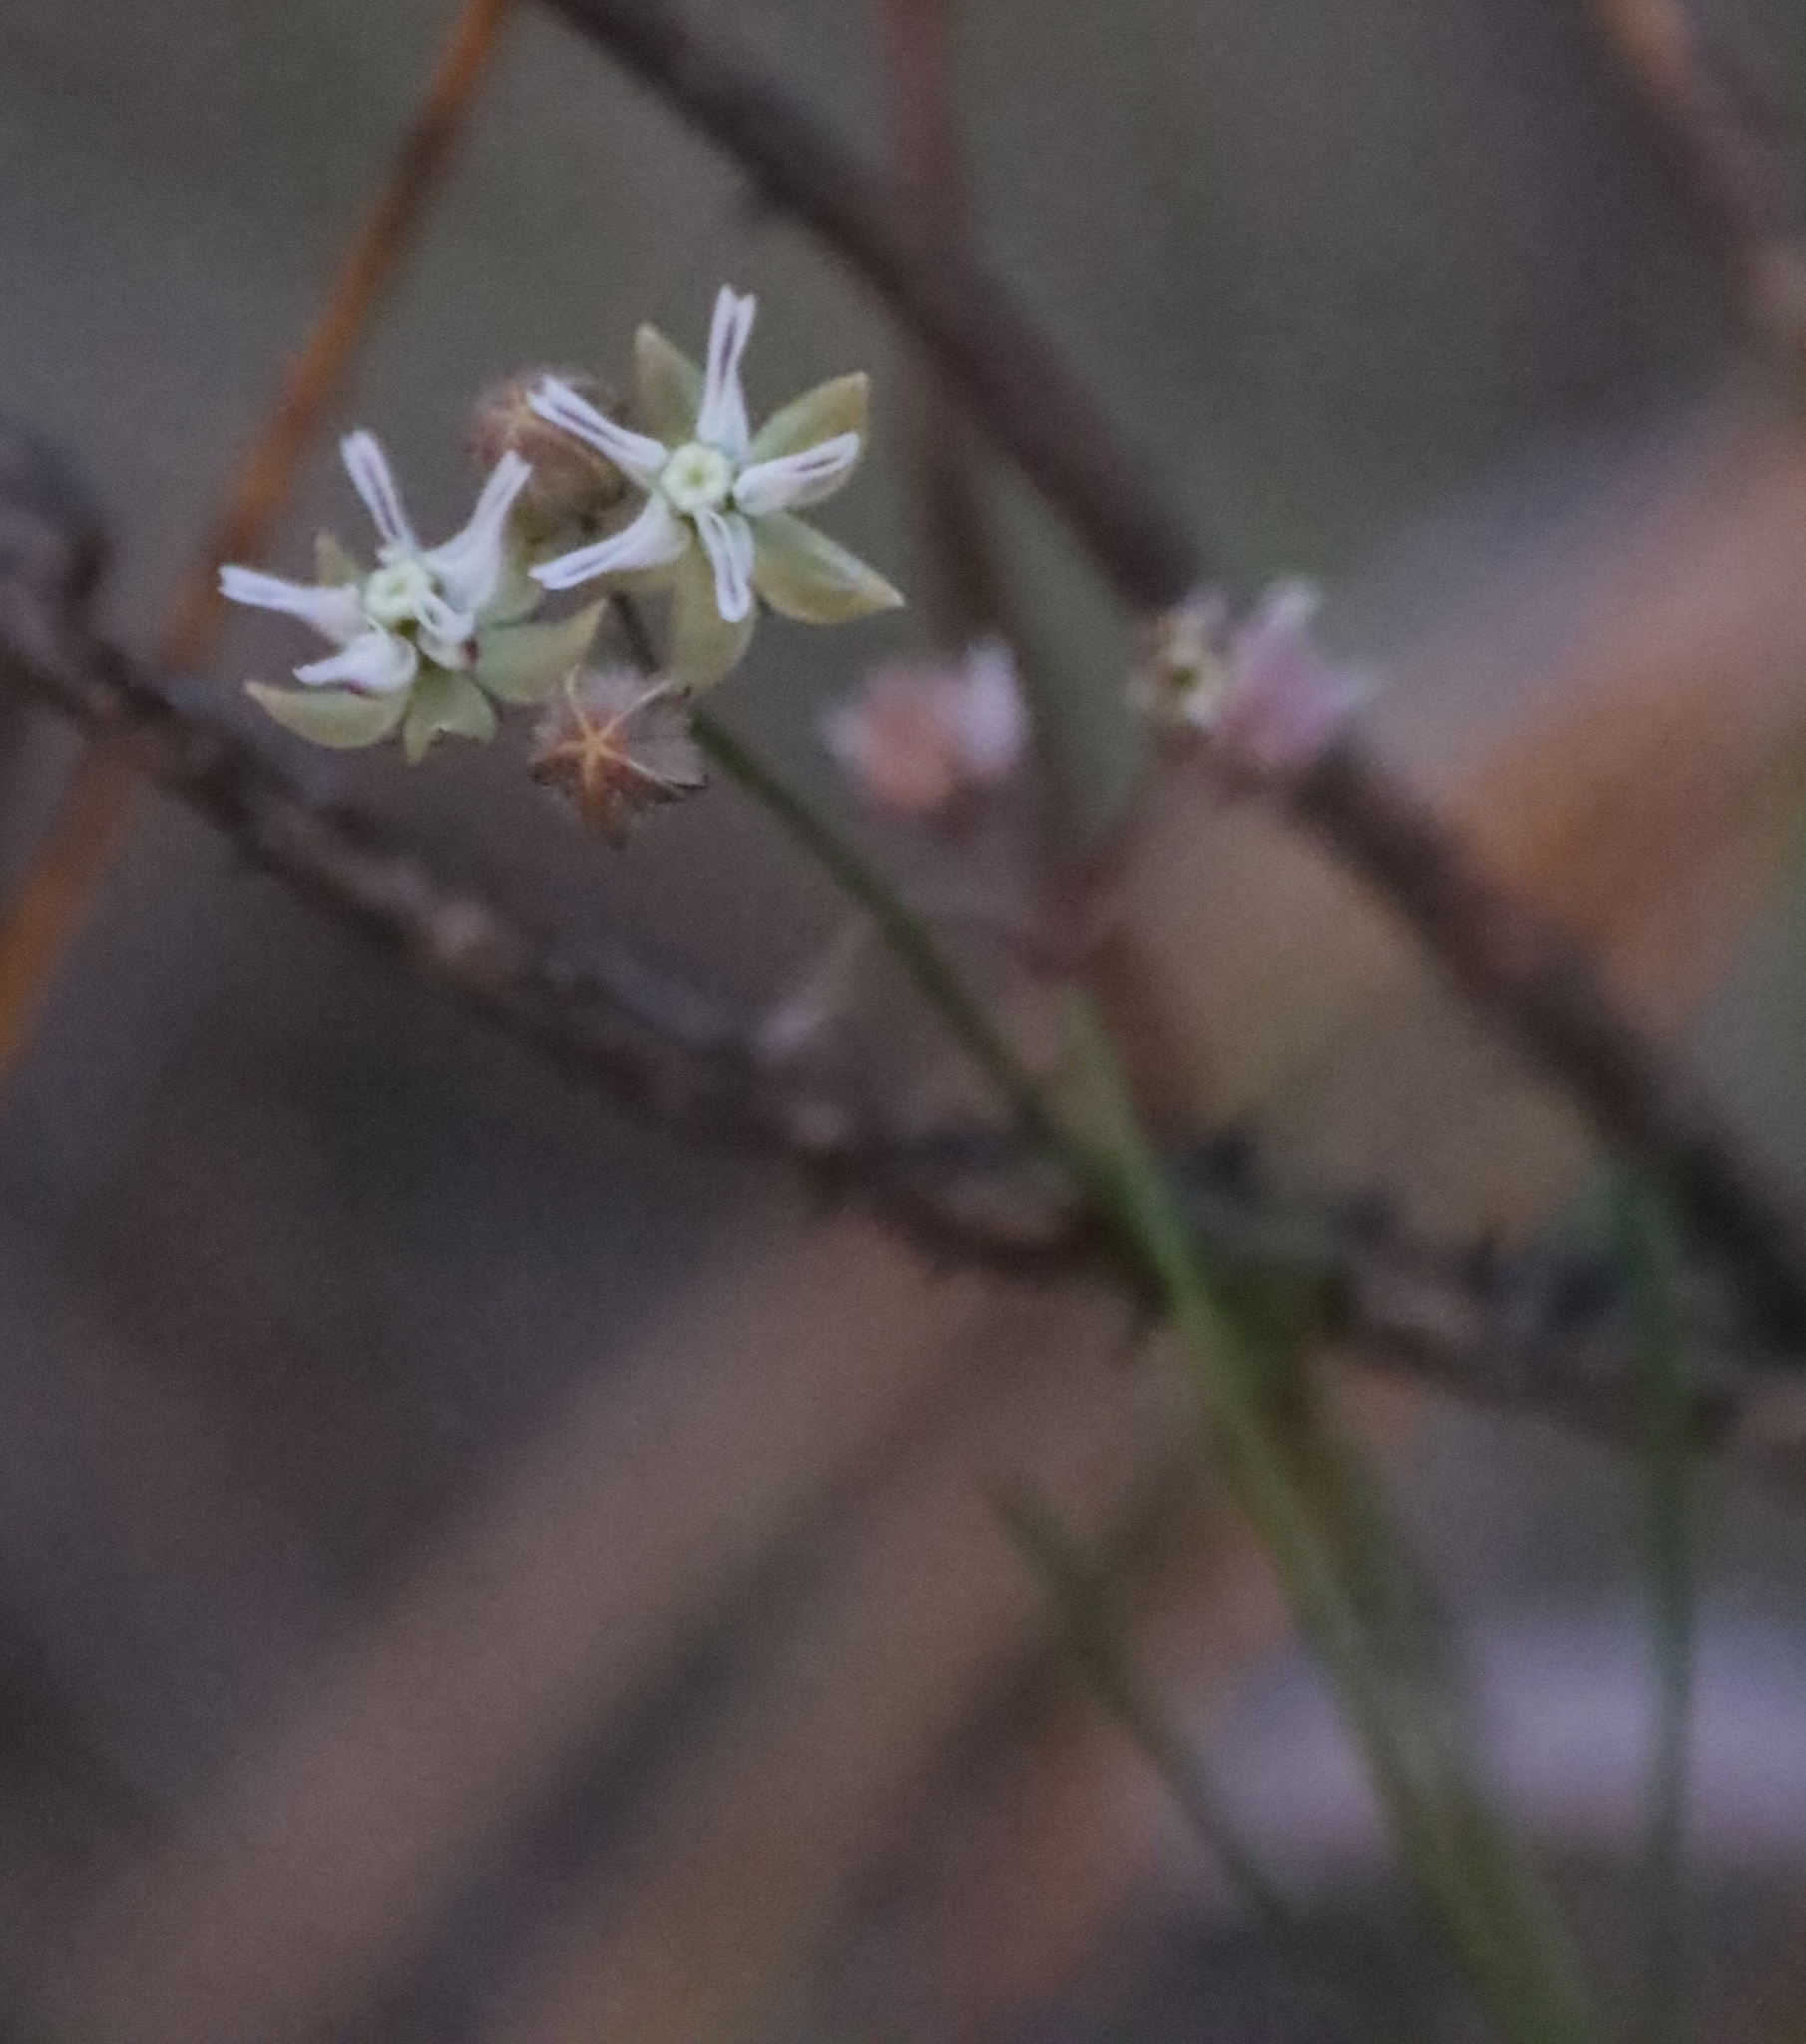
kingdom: Plantae
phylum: Tracheophyta
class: Magnoliopsida
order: Gentianales
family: Apocynaceae
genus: Asclepias
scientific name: Asclepias aurea
